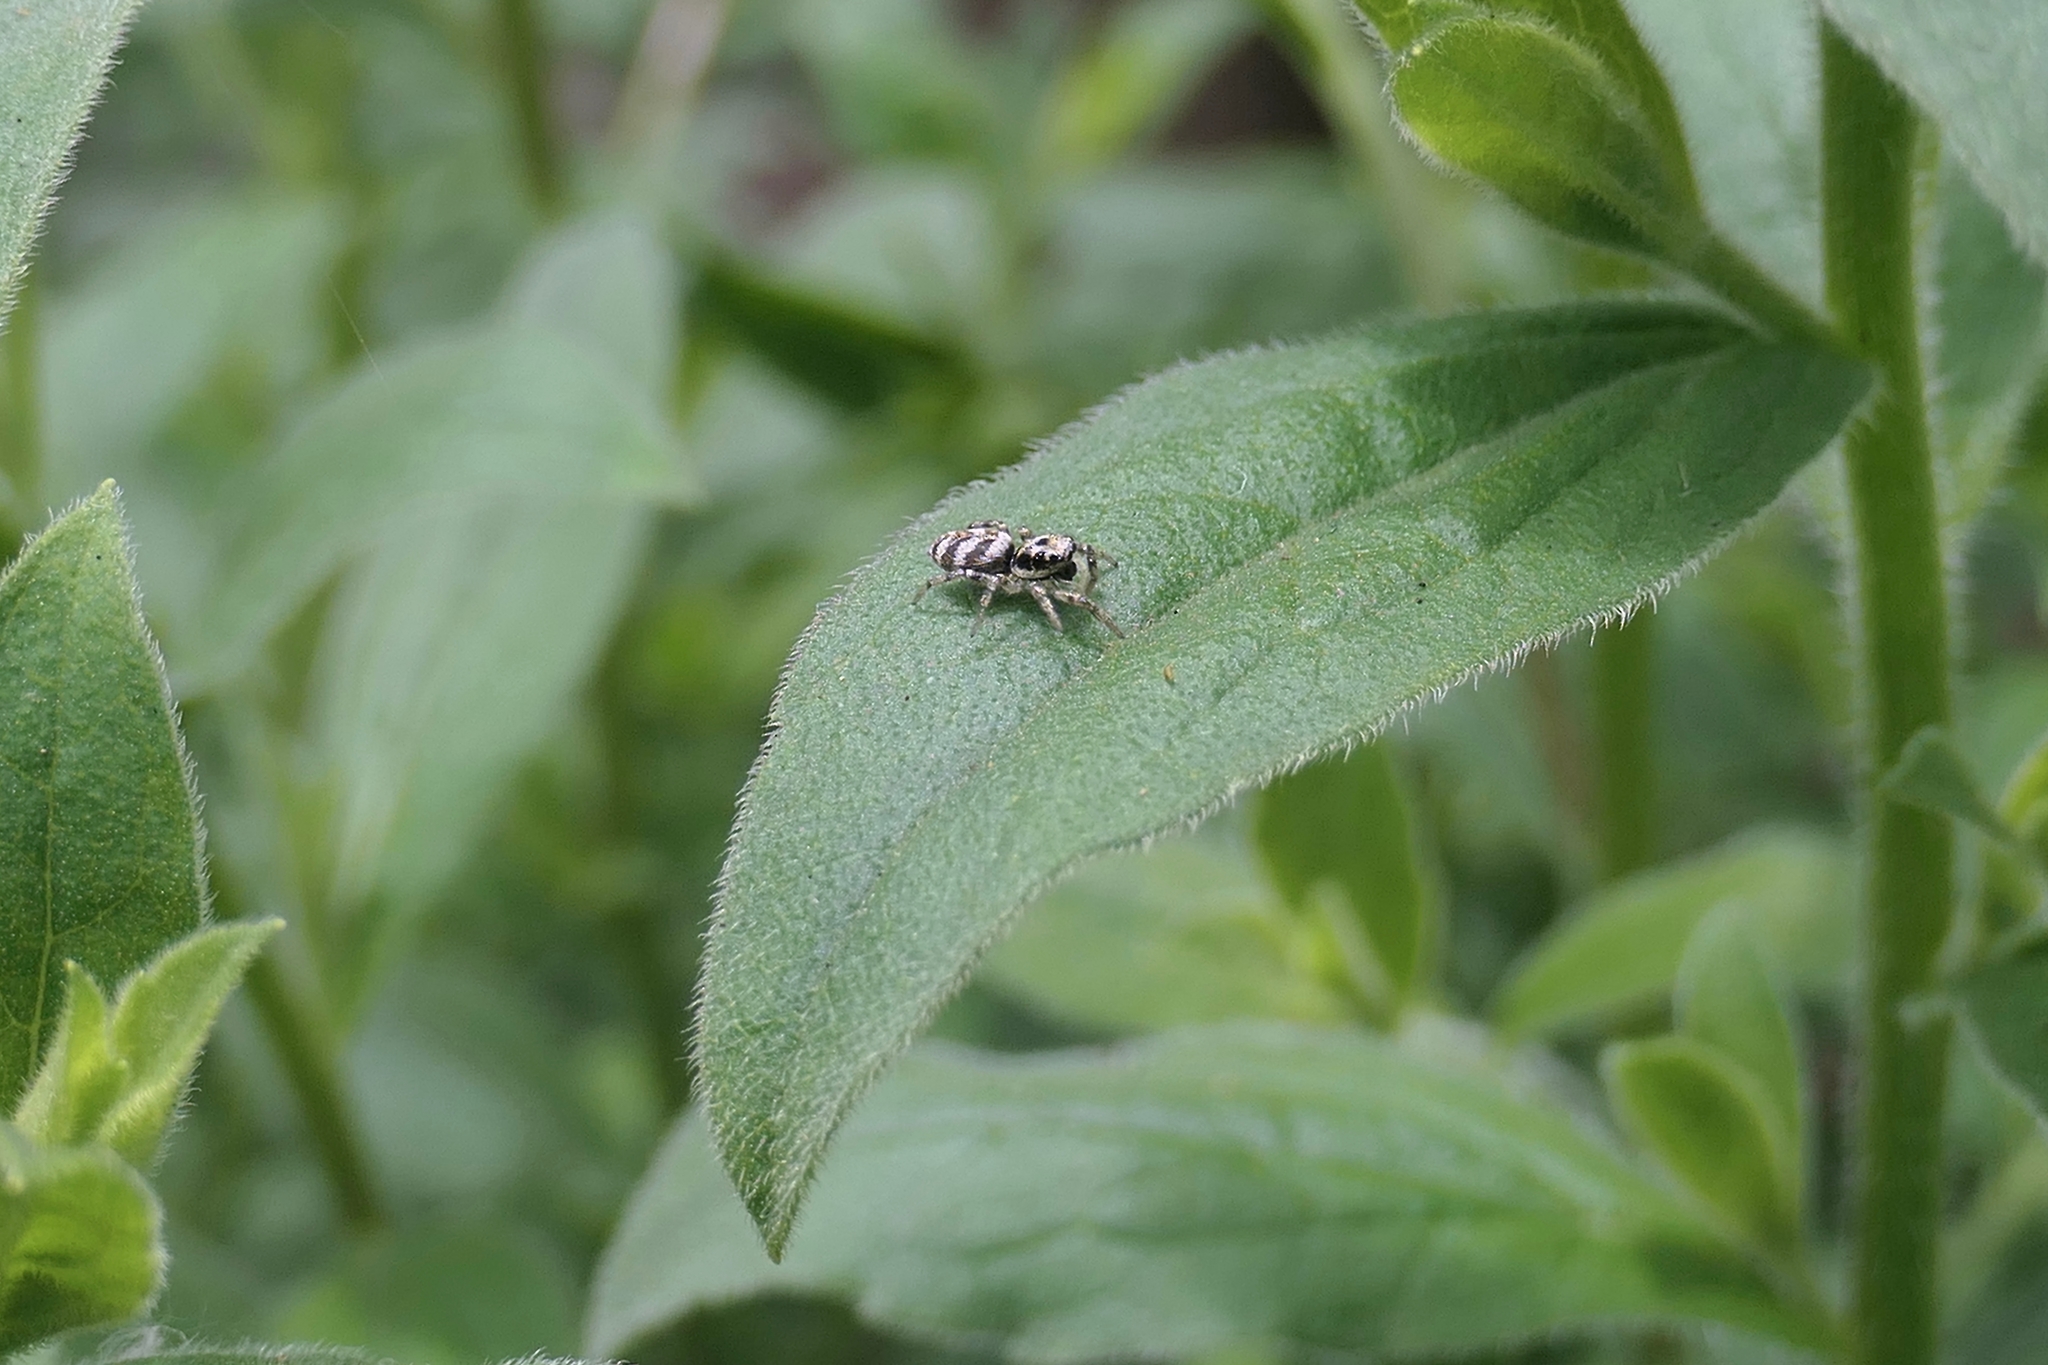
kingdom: Animalia
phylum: Arthropoda
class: Arachnida
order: Araneae
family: Salticidae
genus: Salticus
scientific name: Salticus scenicus
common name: Zebra jumper
